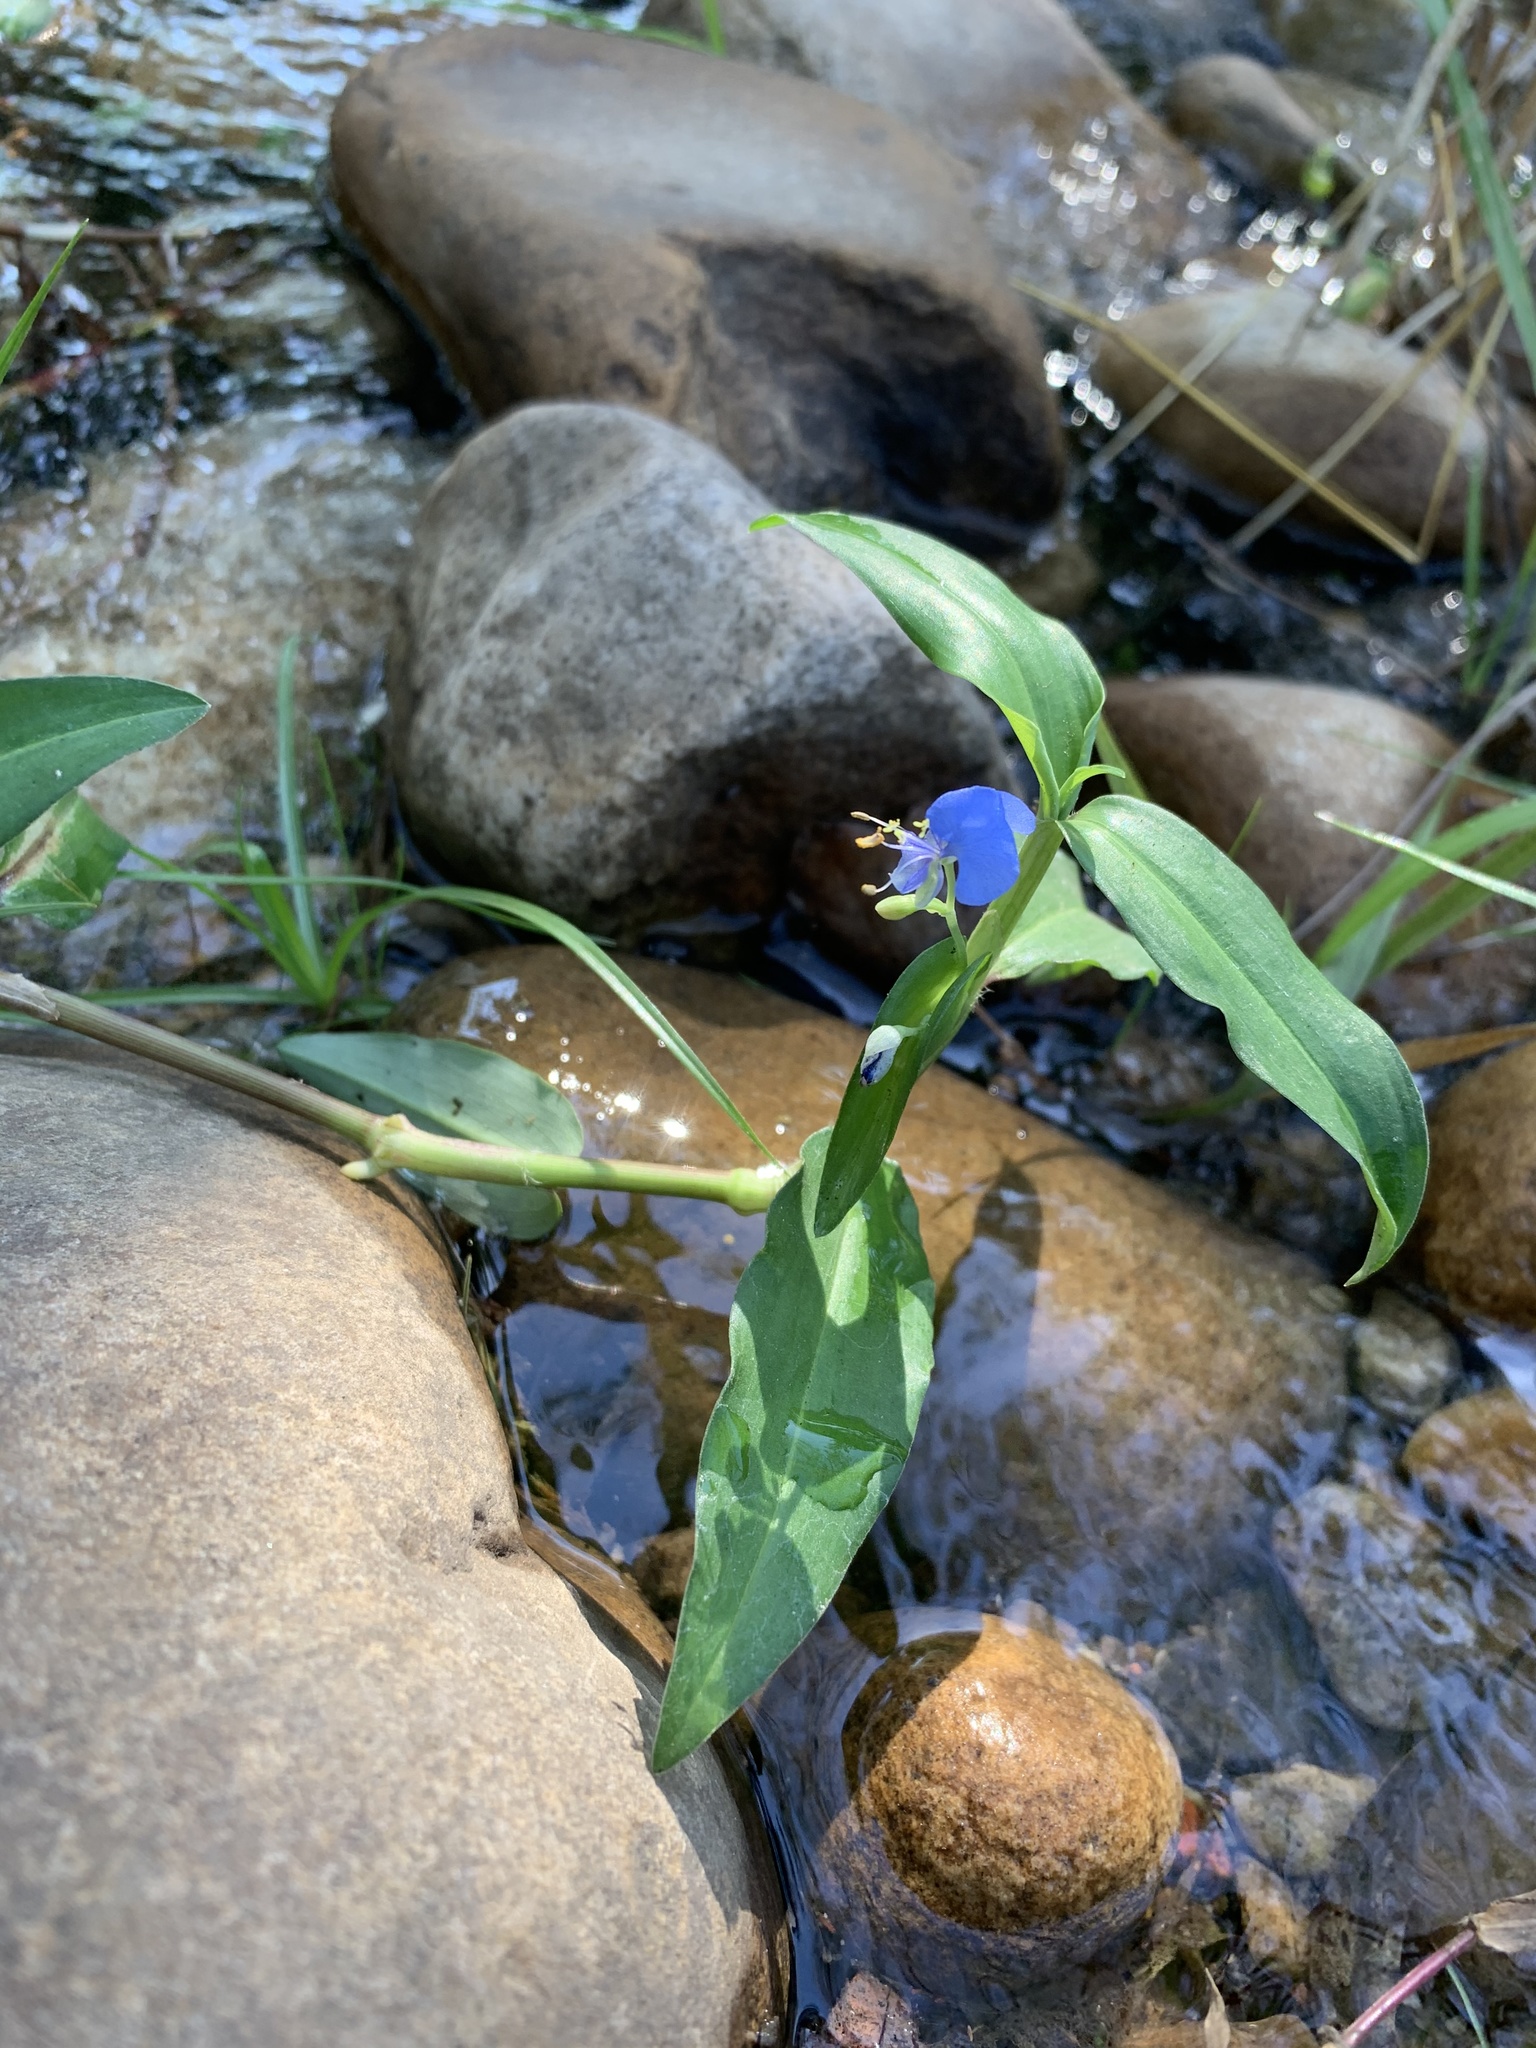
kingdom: Plantae
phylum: Tracheophyta
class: Liliopsida
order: Commelinales
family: Commelinaceae
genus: Commelina
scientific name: Commelina diffusa
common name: Climbing dayflower
